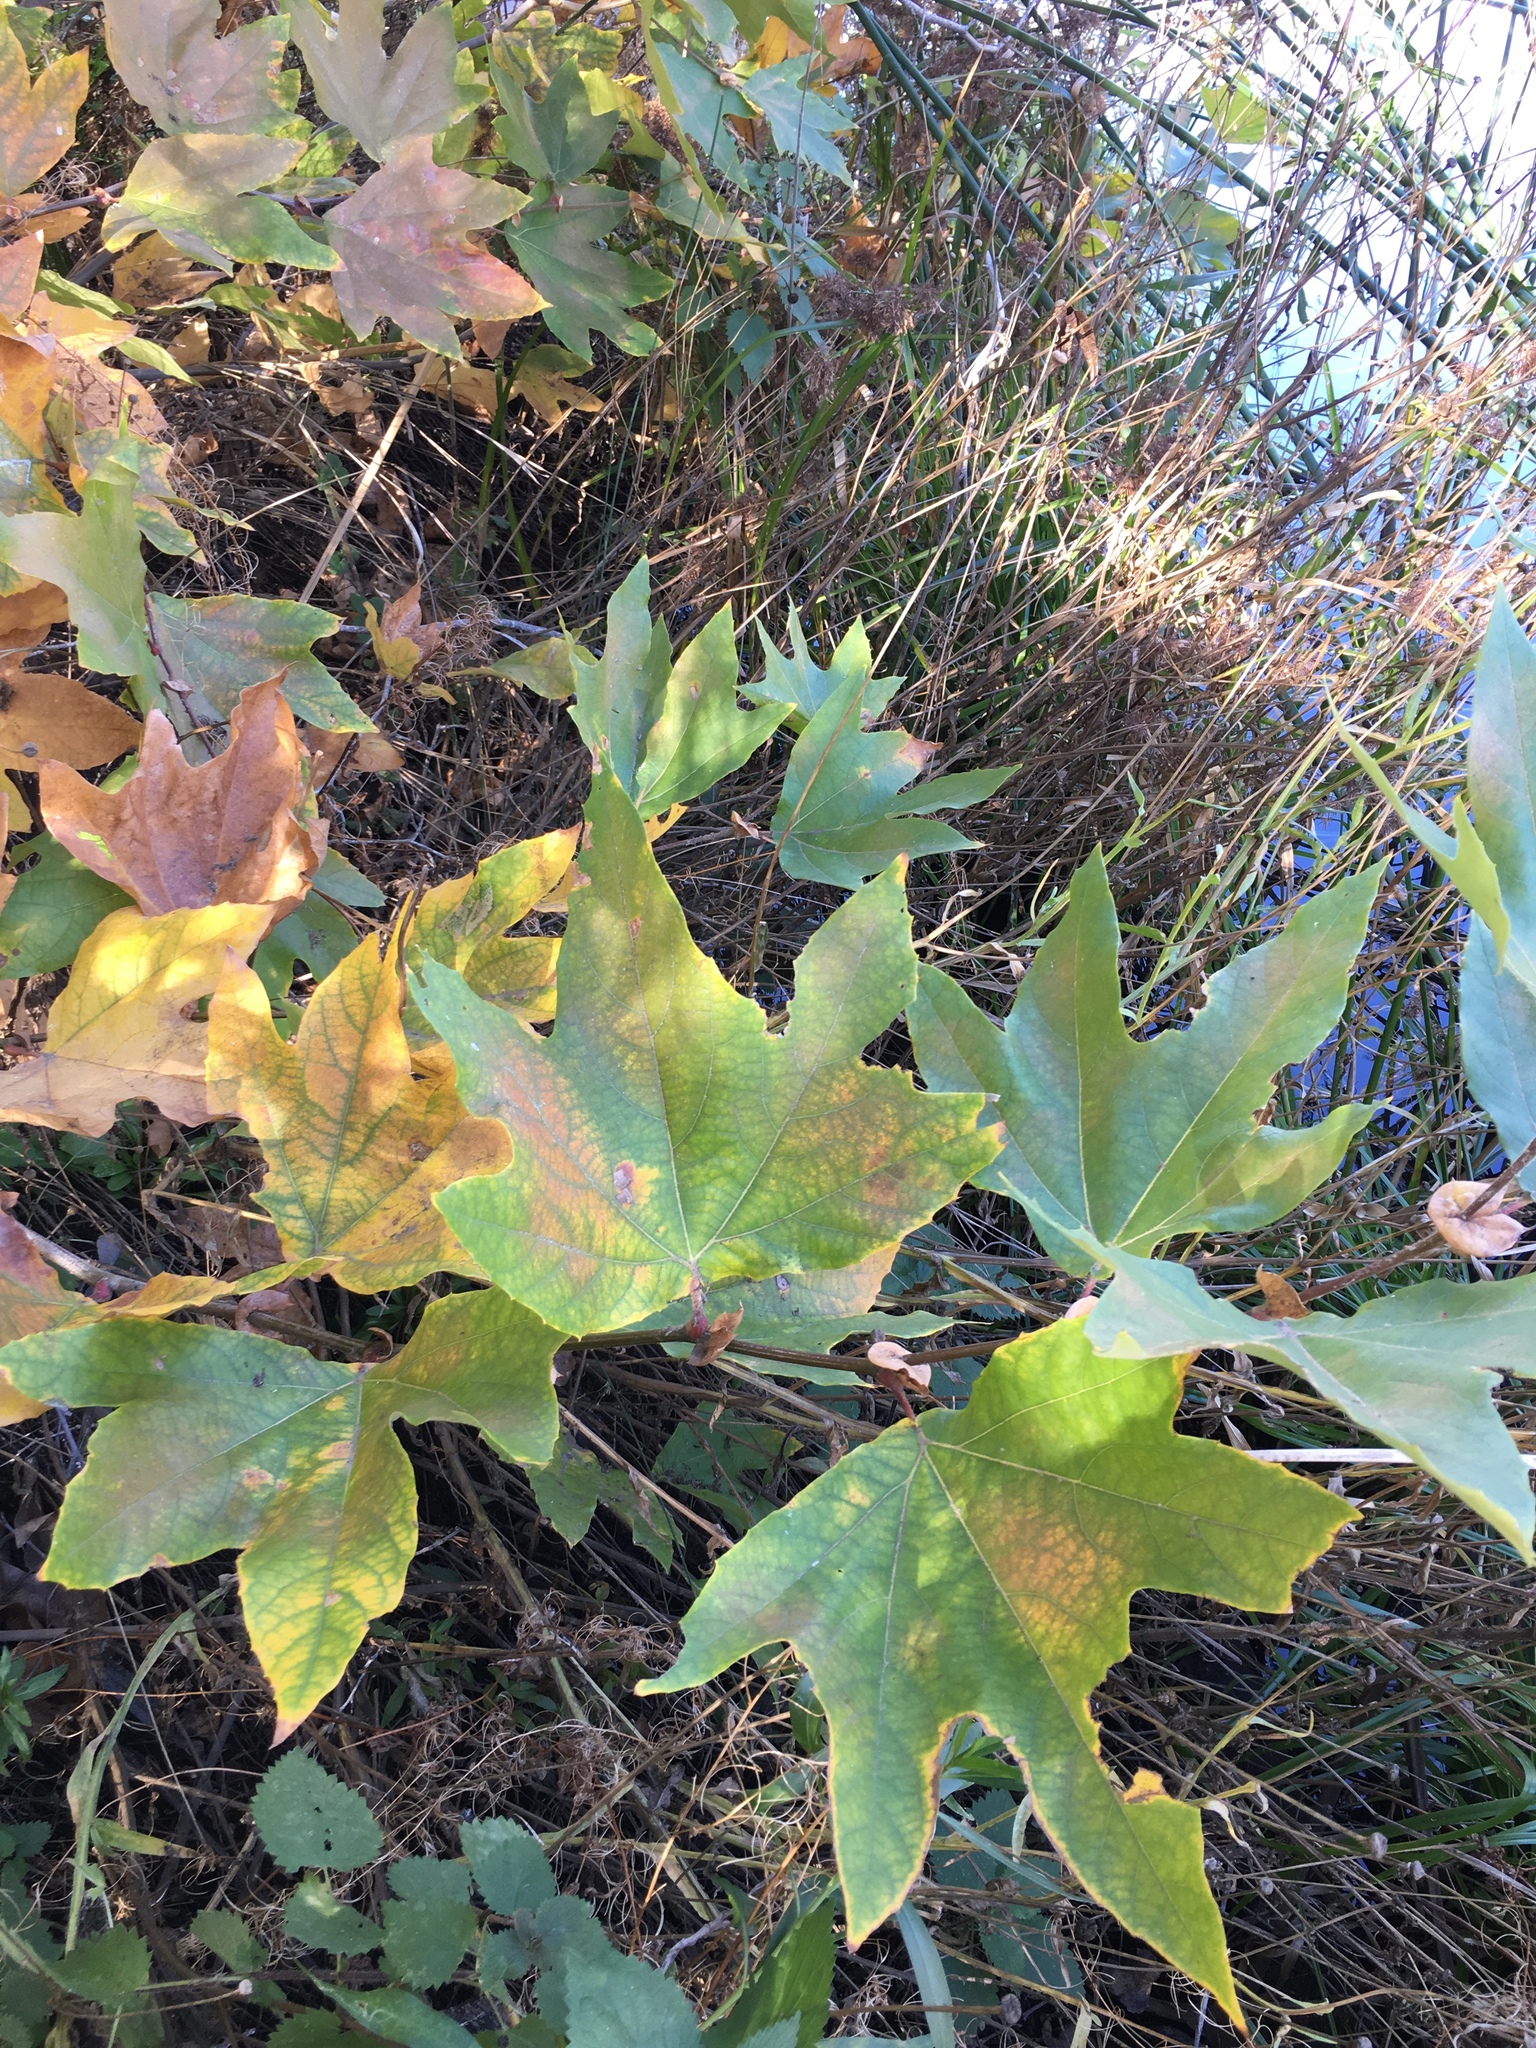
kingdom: Plantae
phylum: Tracheophyta
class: Magnoliopsida
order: Proteales
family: Platanaceae
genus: Platanus
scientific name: Platanus racemosa
